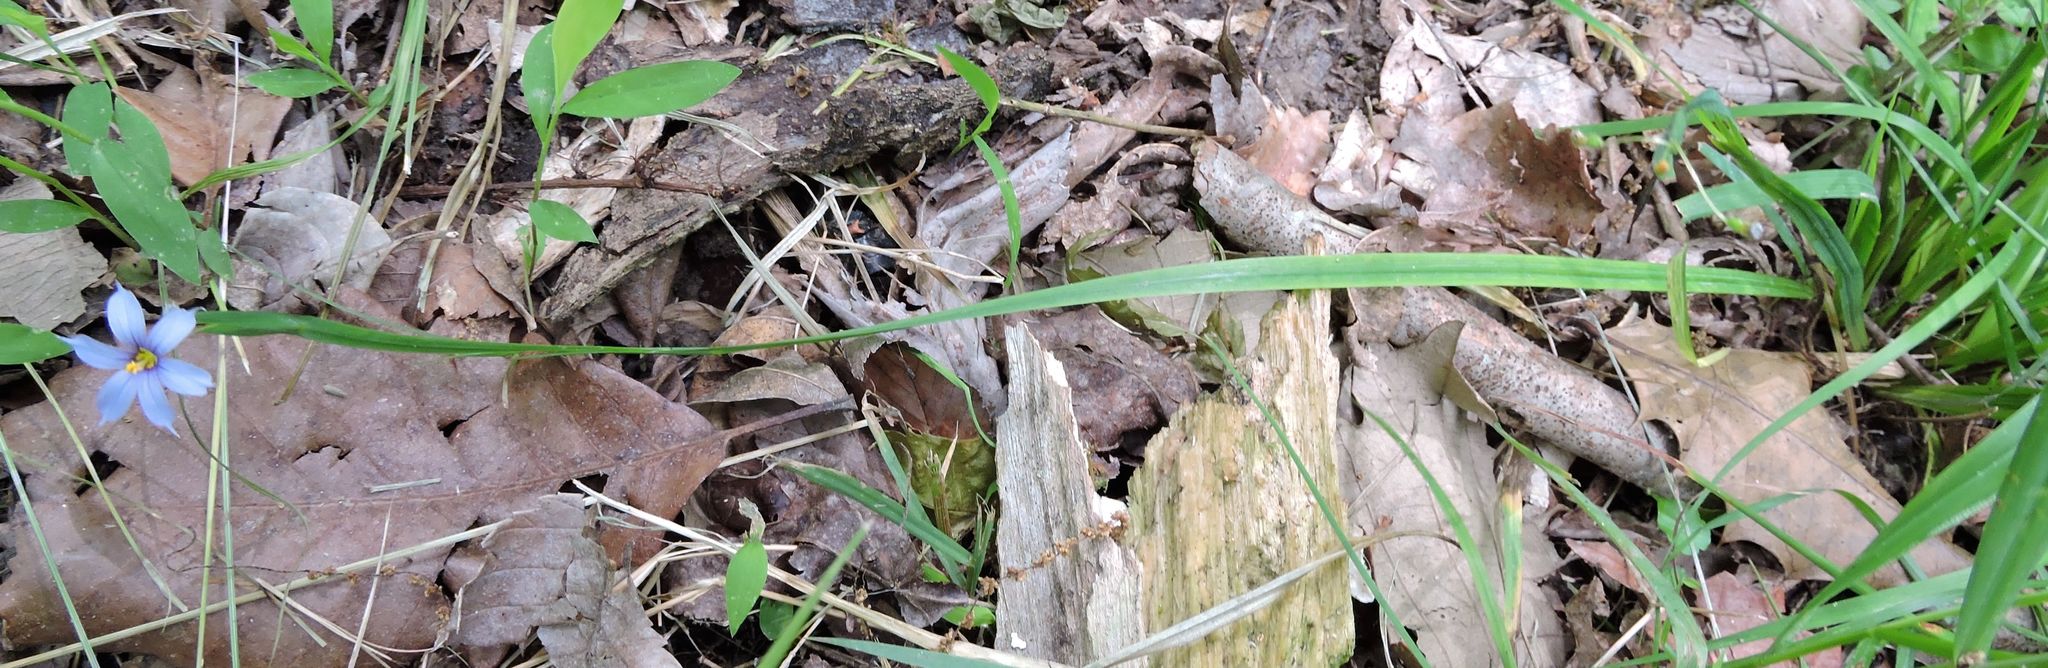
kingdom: Plantae
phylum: Tracheophyta
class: Liliopsida
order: Asparagales
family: Iridaceae
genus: Sisyrinchium
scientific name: Sisyrinchium angustifolium
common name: Narrow-leaf blue-eyed-grass
